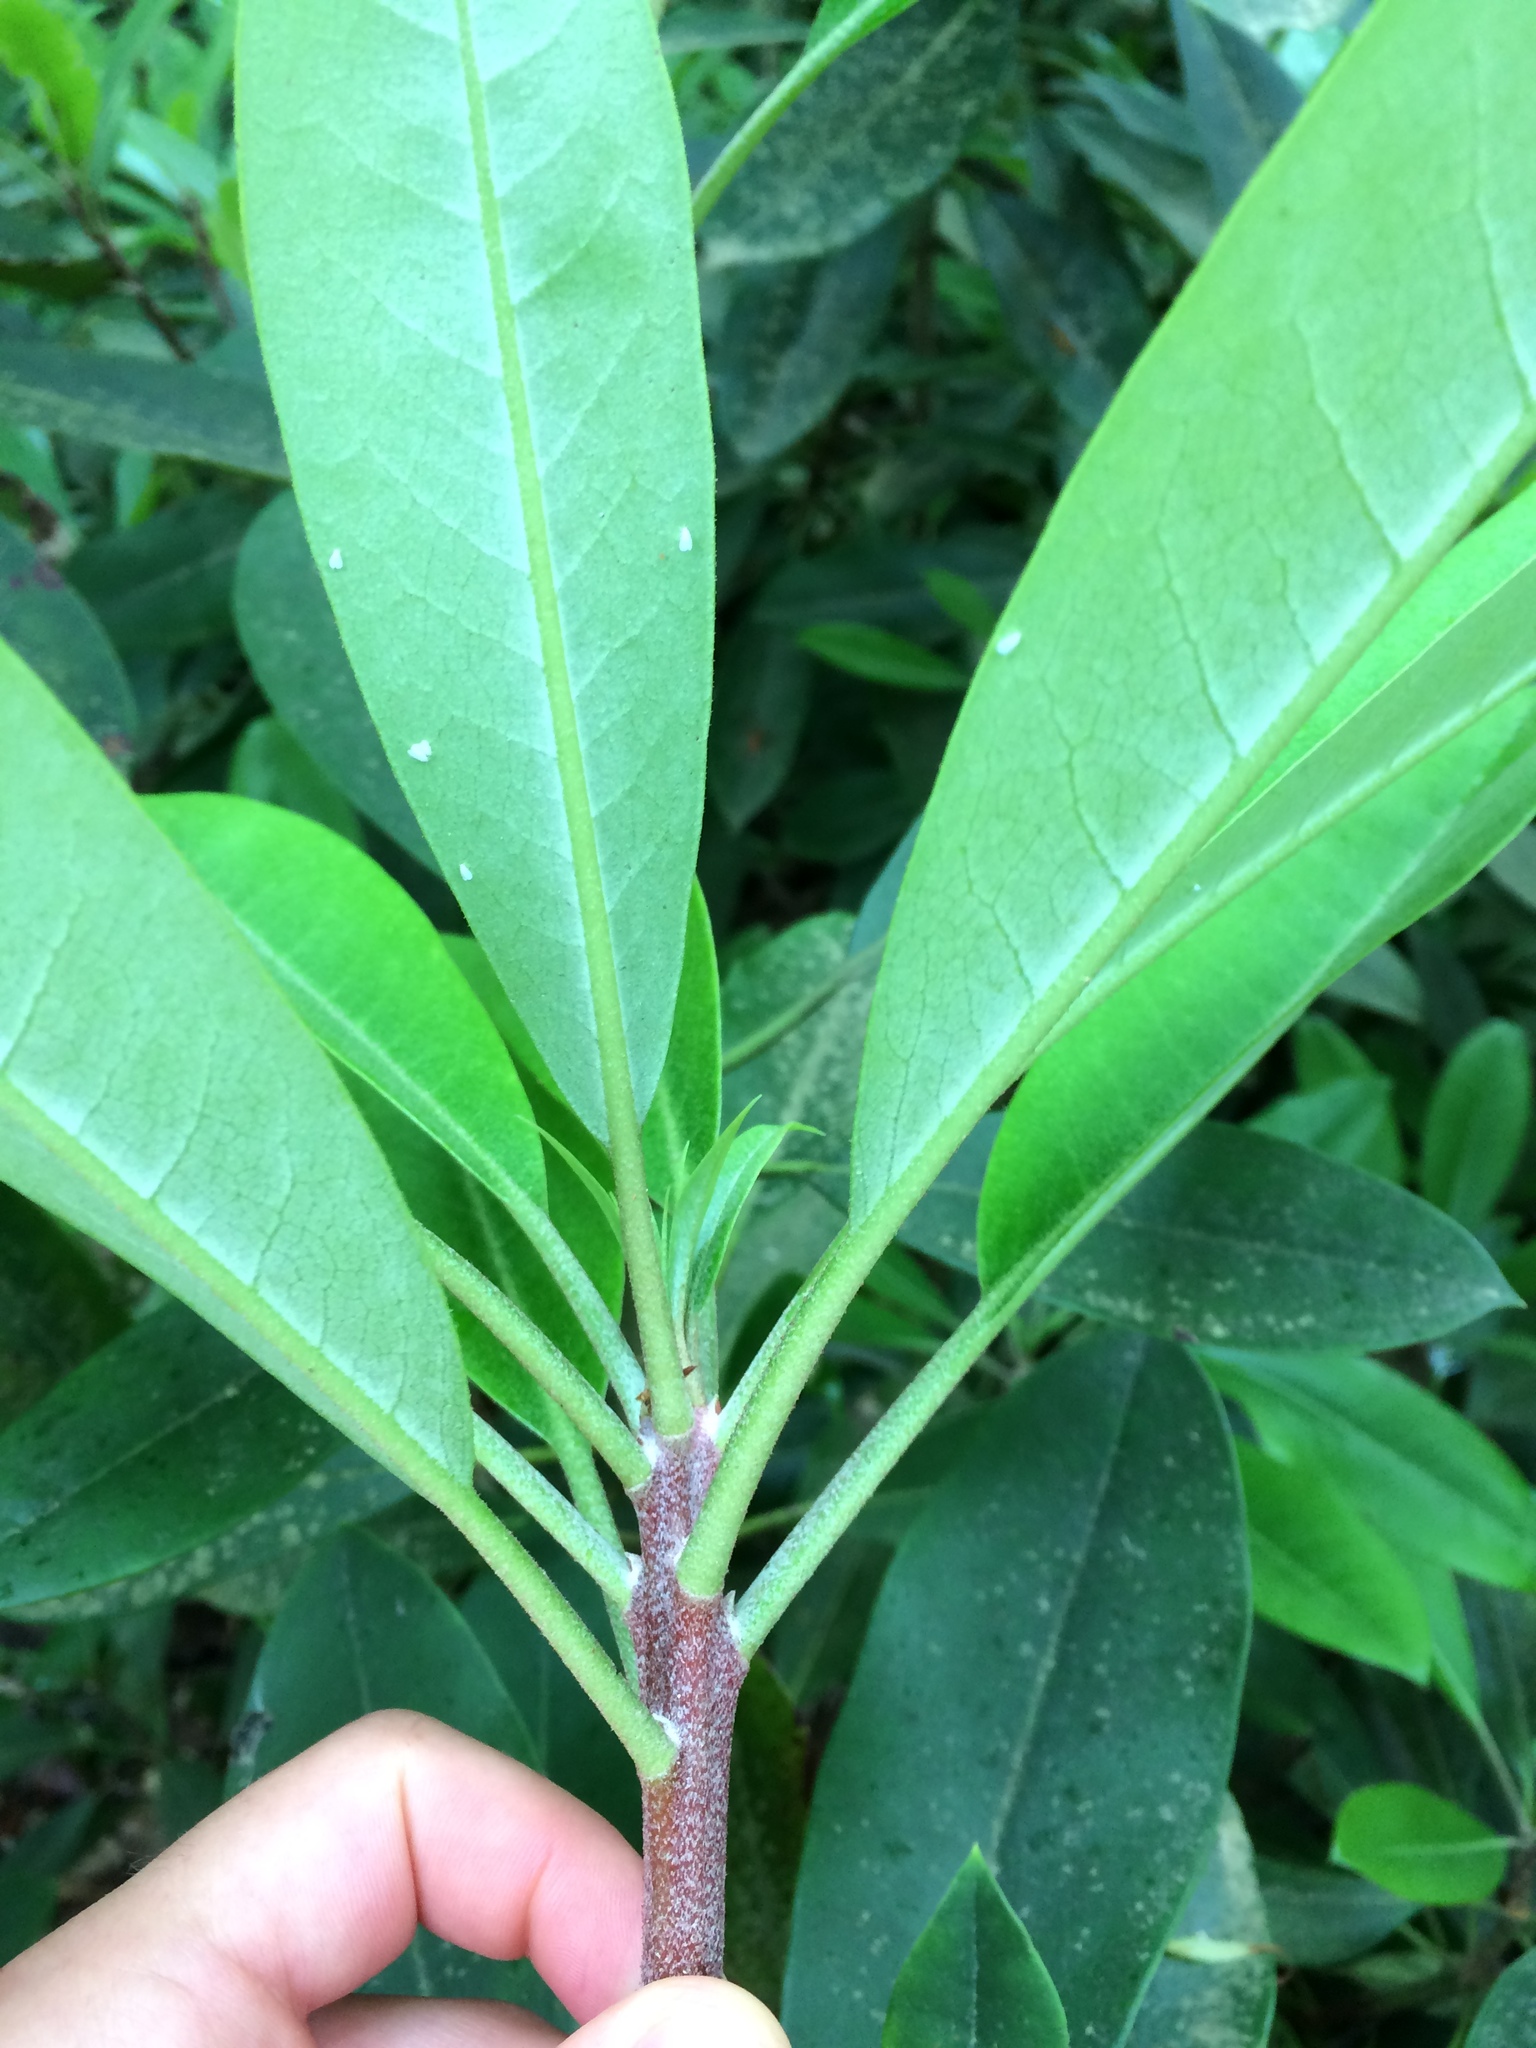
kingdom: Plantae
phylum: Tracheophyta
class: Magnoliopsida
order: Ericales
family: Ericaceae
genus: Rhododendron
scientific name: Rhododendron maximum
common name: Great rhododendron
